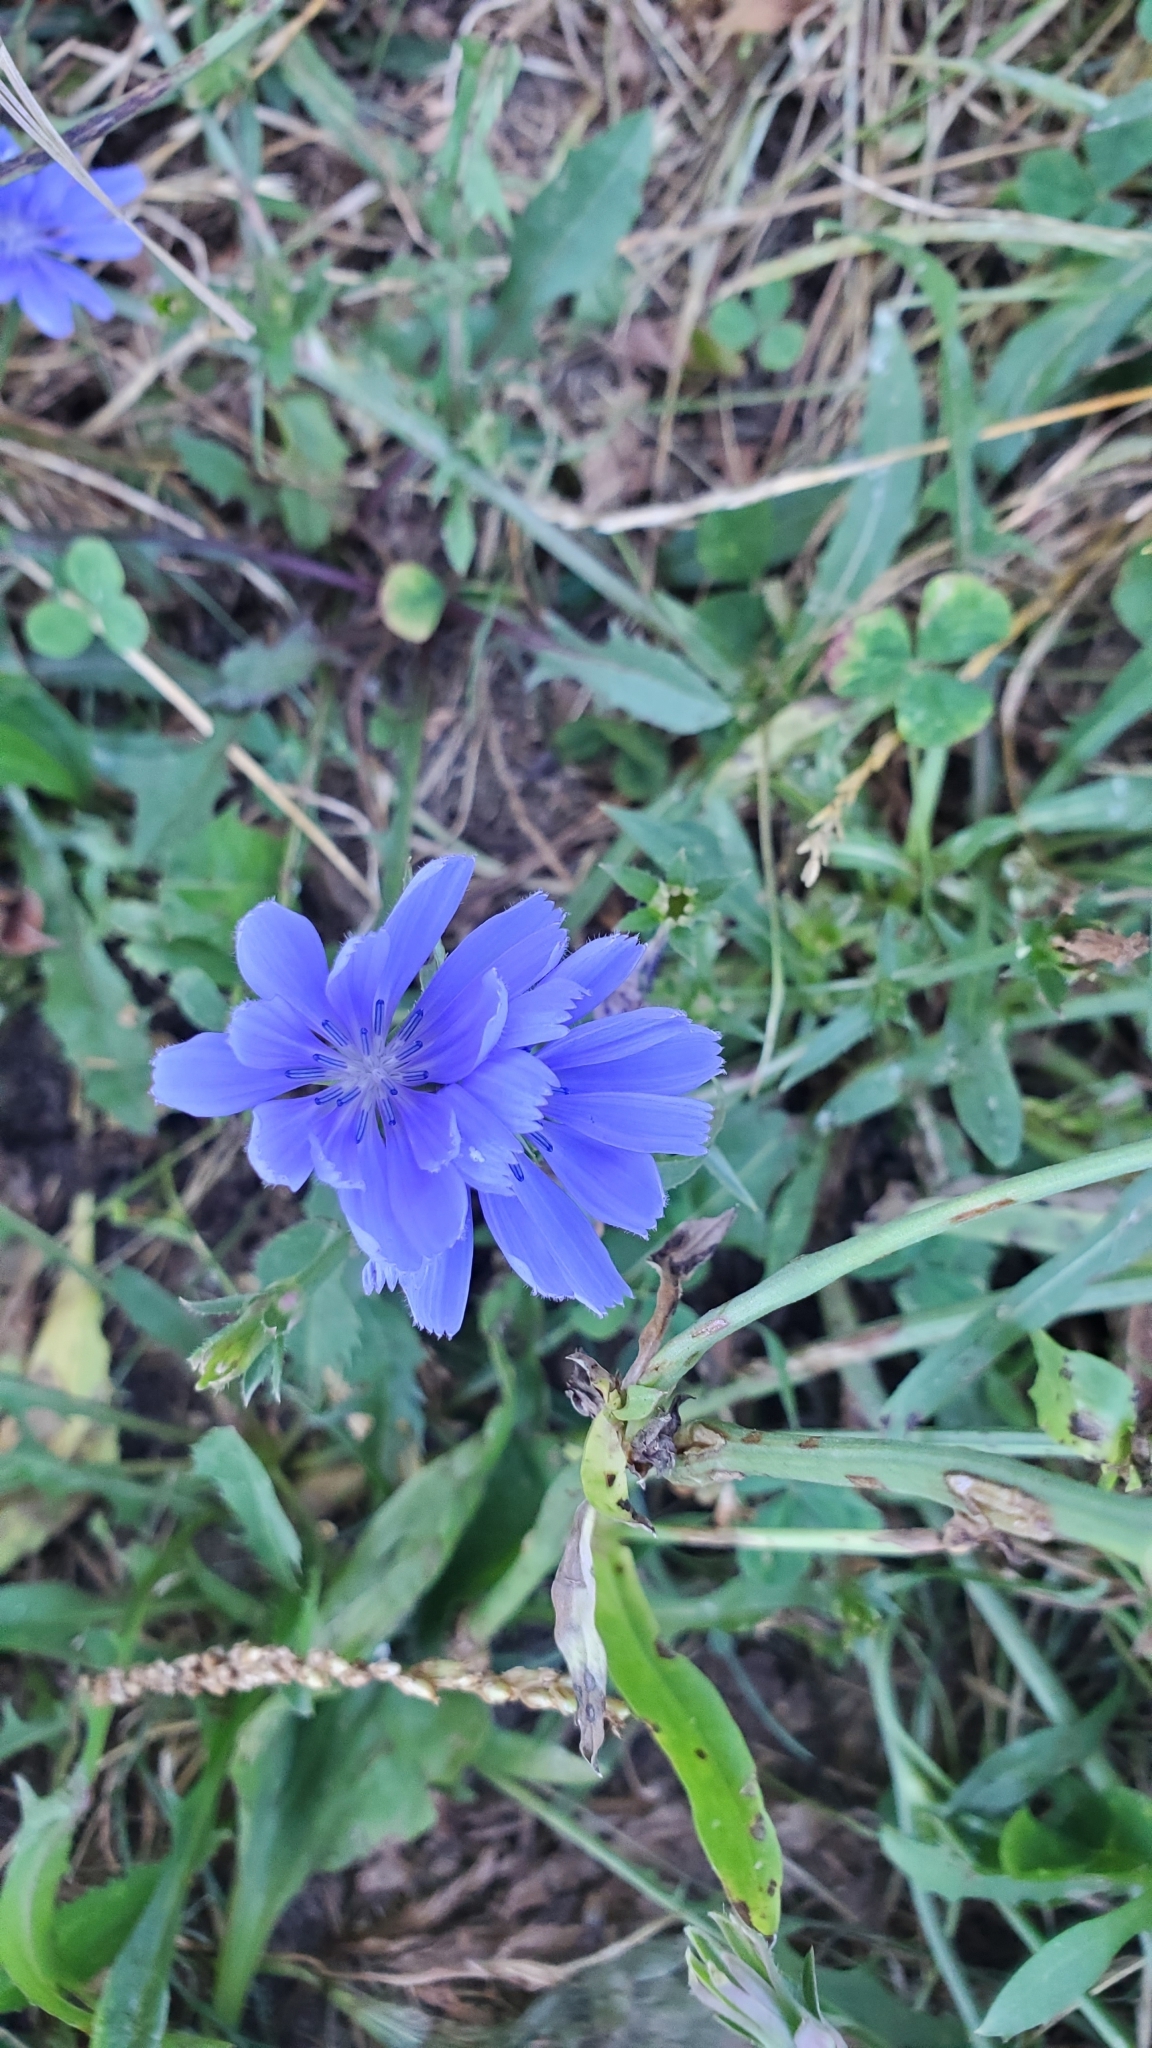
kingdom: Plantae
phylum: Tracheophyta
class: Magnoliopsida
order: Asterales
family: Asteraceae
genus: Cichorium
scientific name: Cichorium intybus
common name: Chicory
